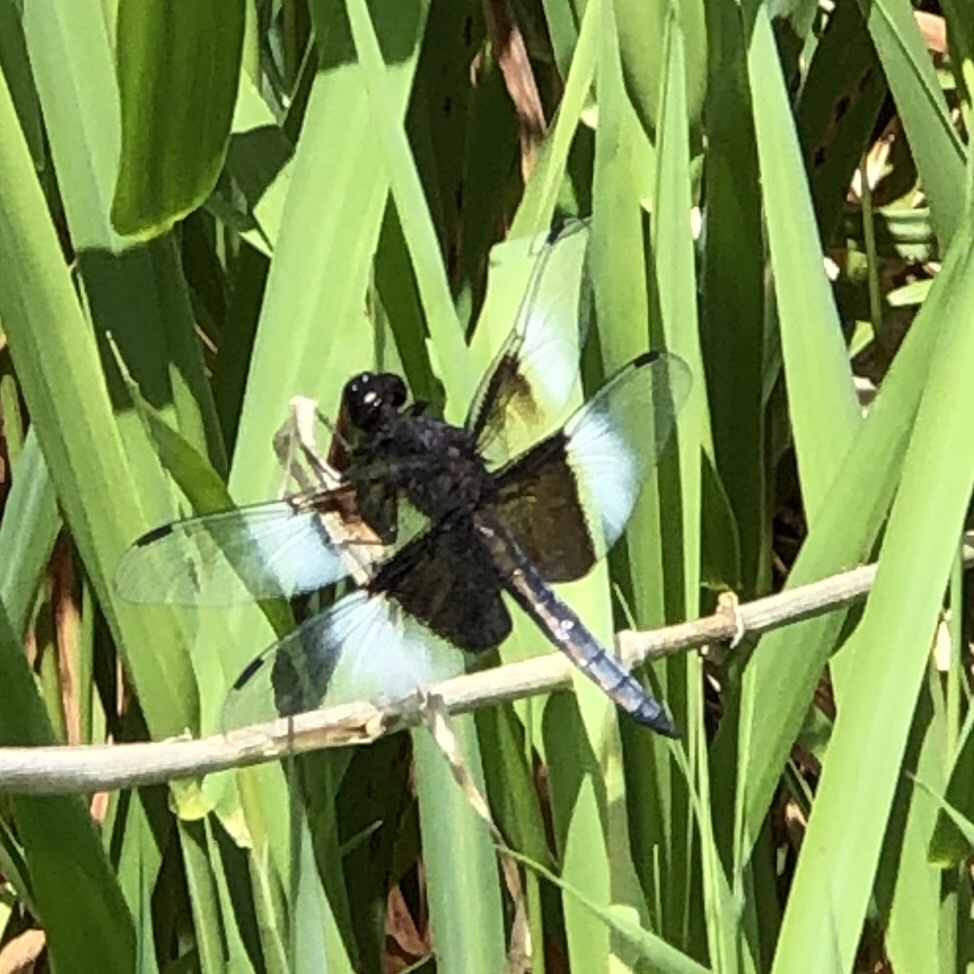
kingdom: Animalia
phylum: Arthropoda
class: Insecta
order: Odonata
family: Libellulidae
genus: Libellula
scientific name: Libellula luctuosa
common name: Widow skimmer
